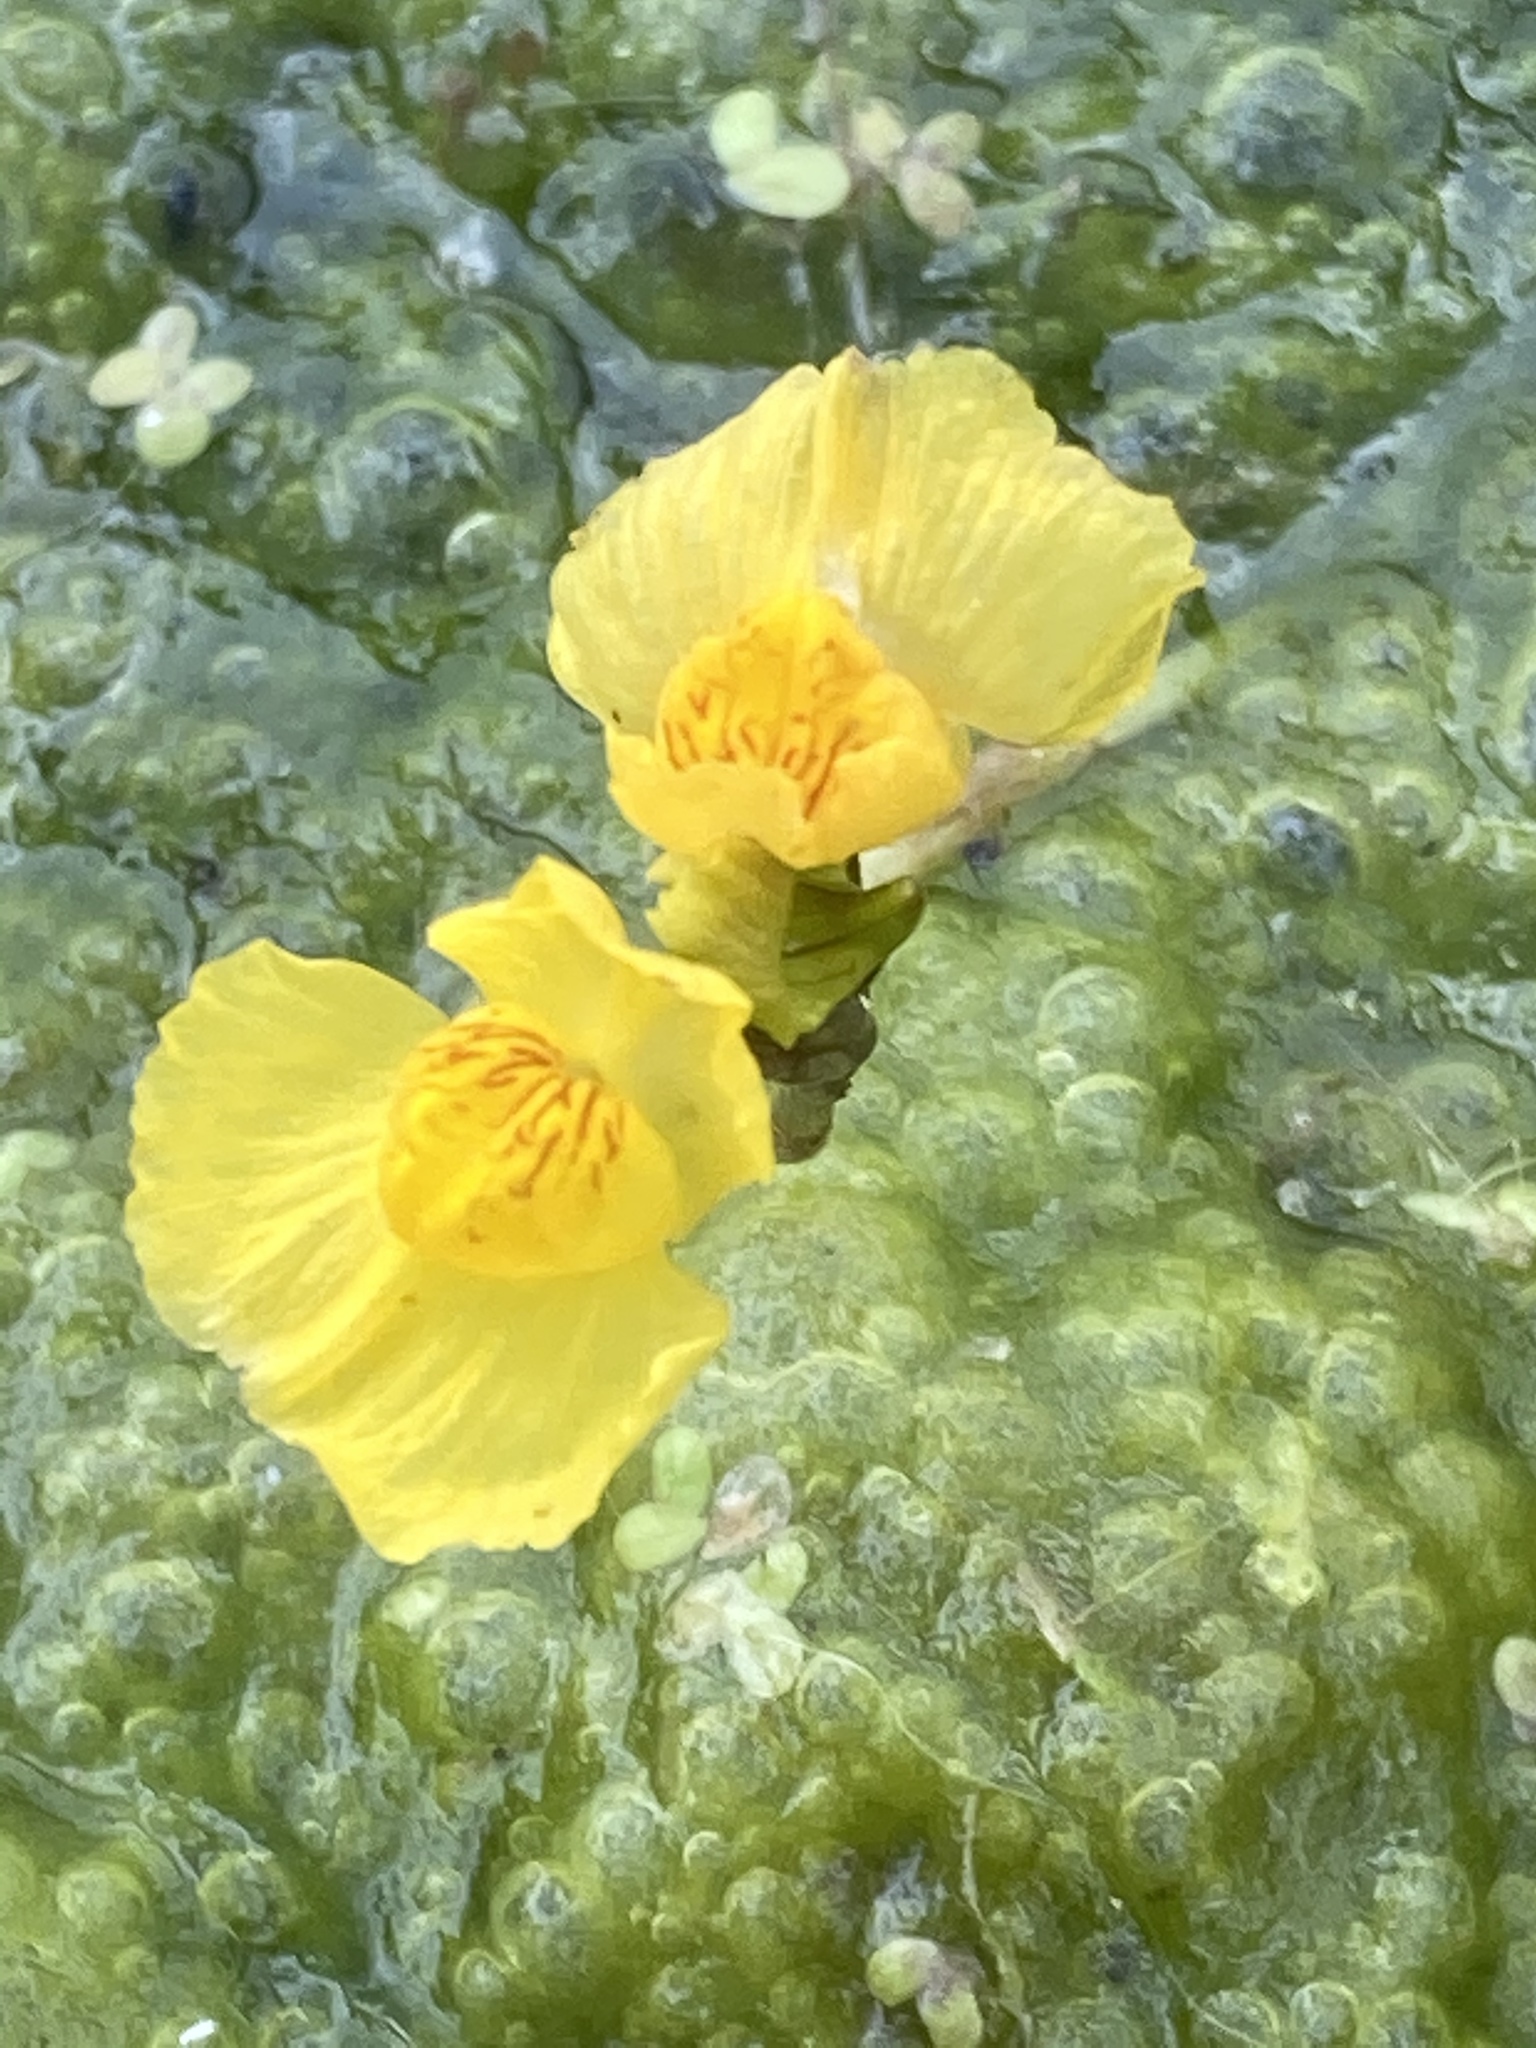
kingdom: Plantae
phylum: Tracheophyta
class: Magnoliopsida
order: Lamiales
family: Lentibulariaceae
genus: Utricularia
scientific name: Utricularia australis
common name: Bladderwort
